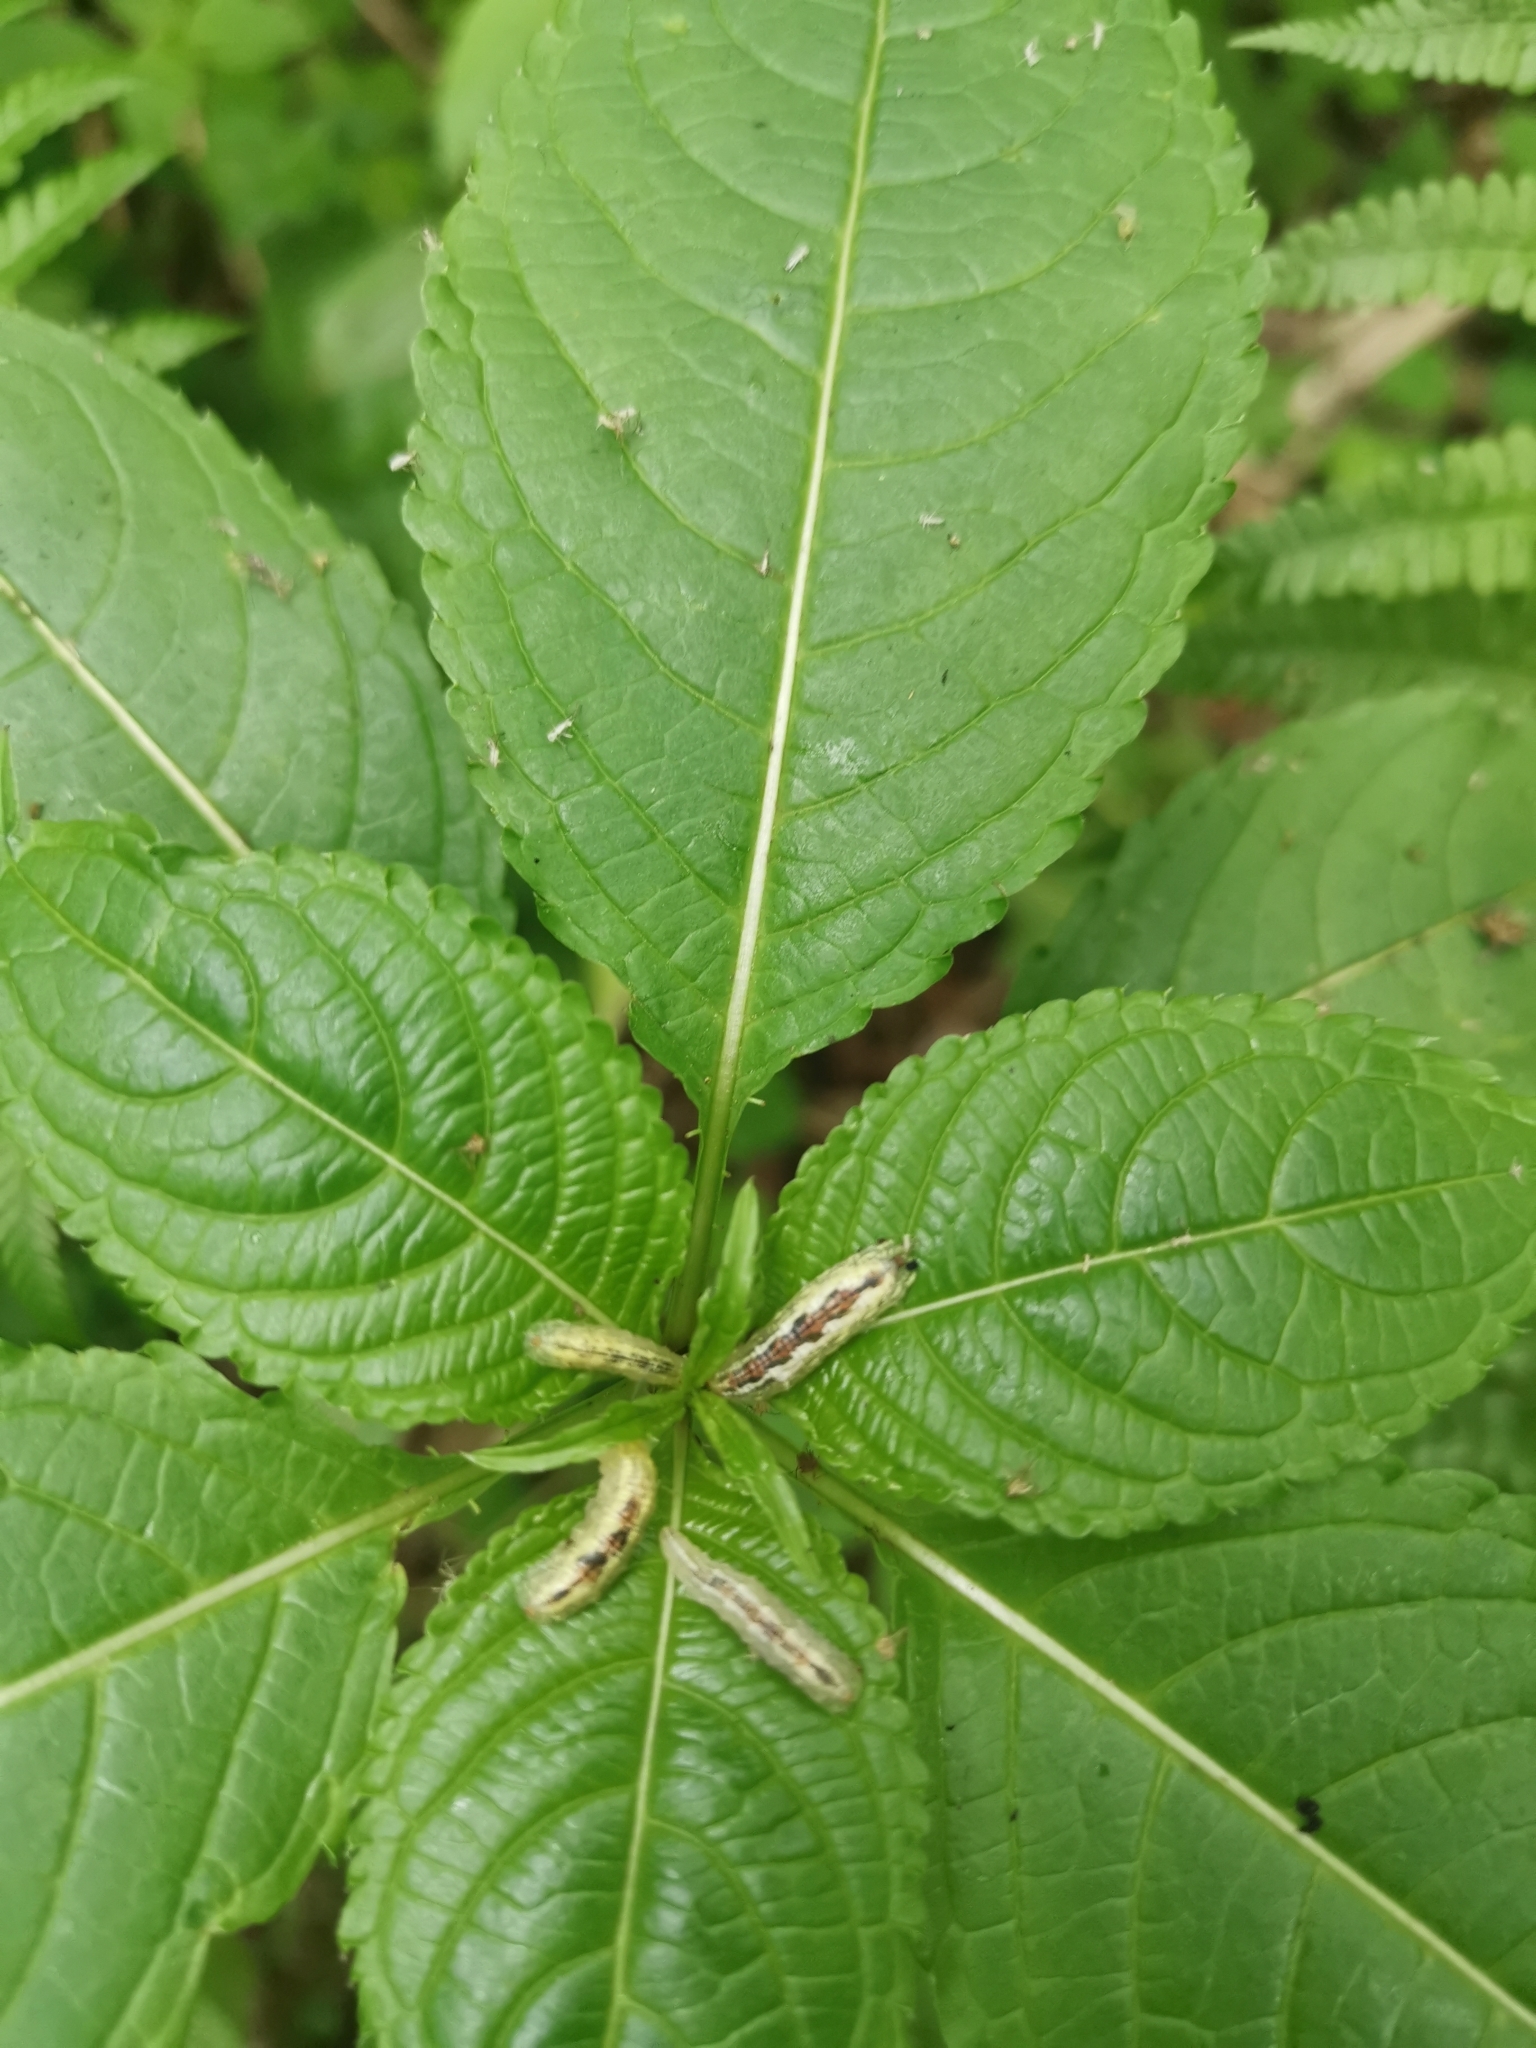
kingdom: Animalia
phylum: Arthropoda
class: Insecta
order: Diptera
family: Syrphidae
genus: Syrphus
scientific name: Syrphus
